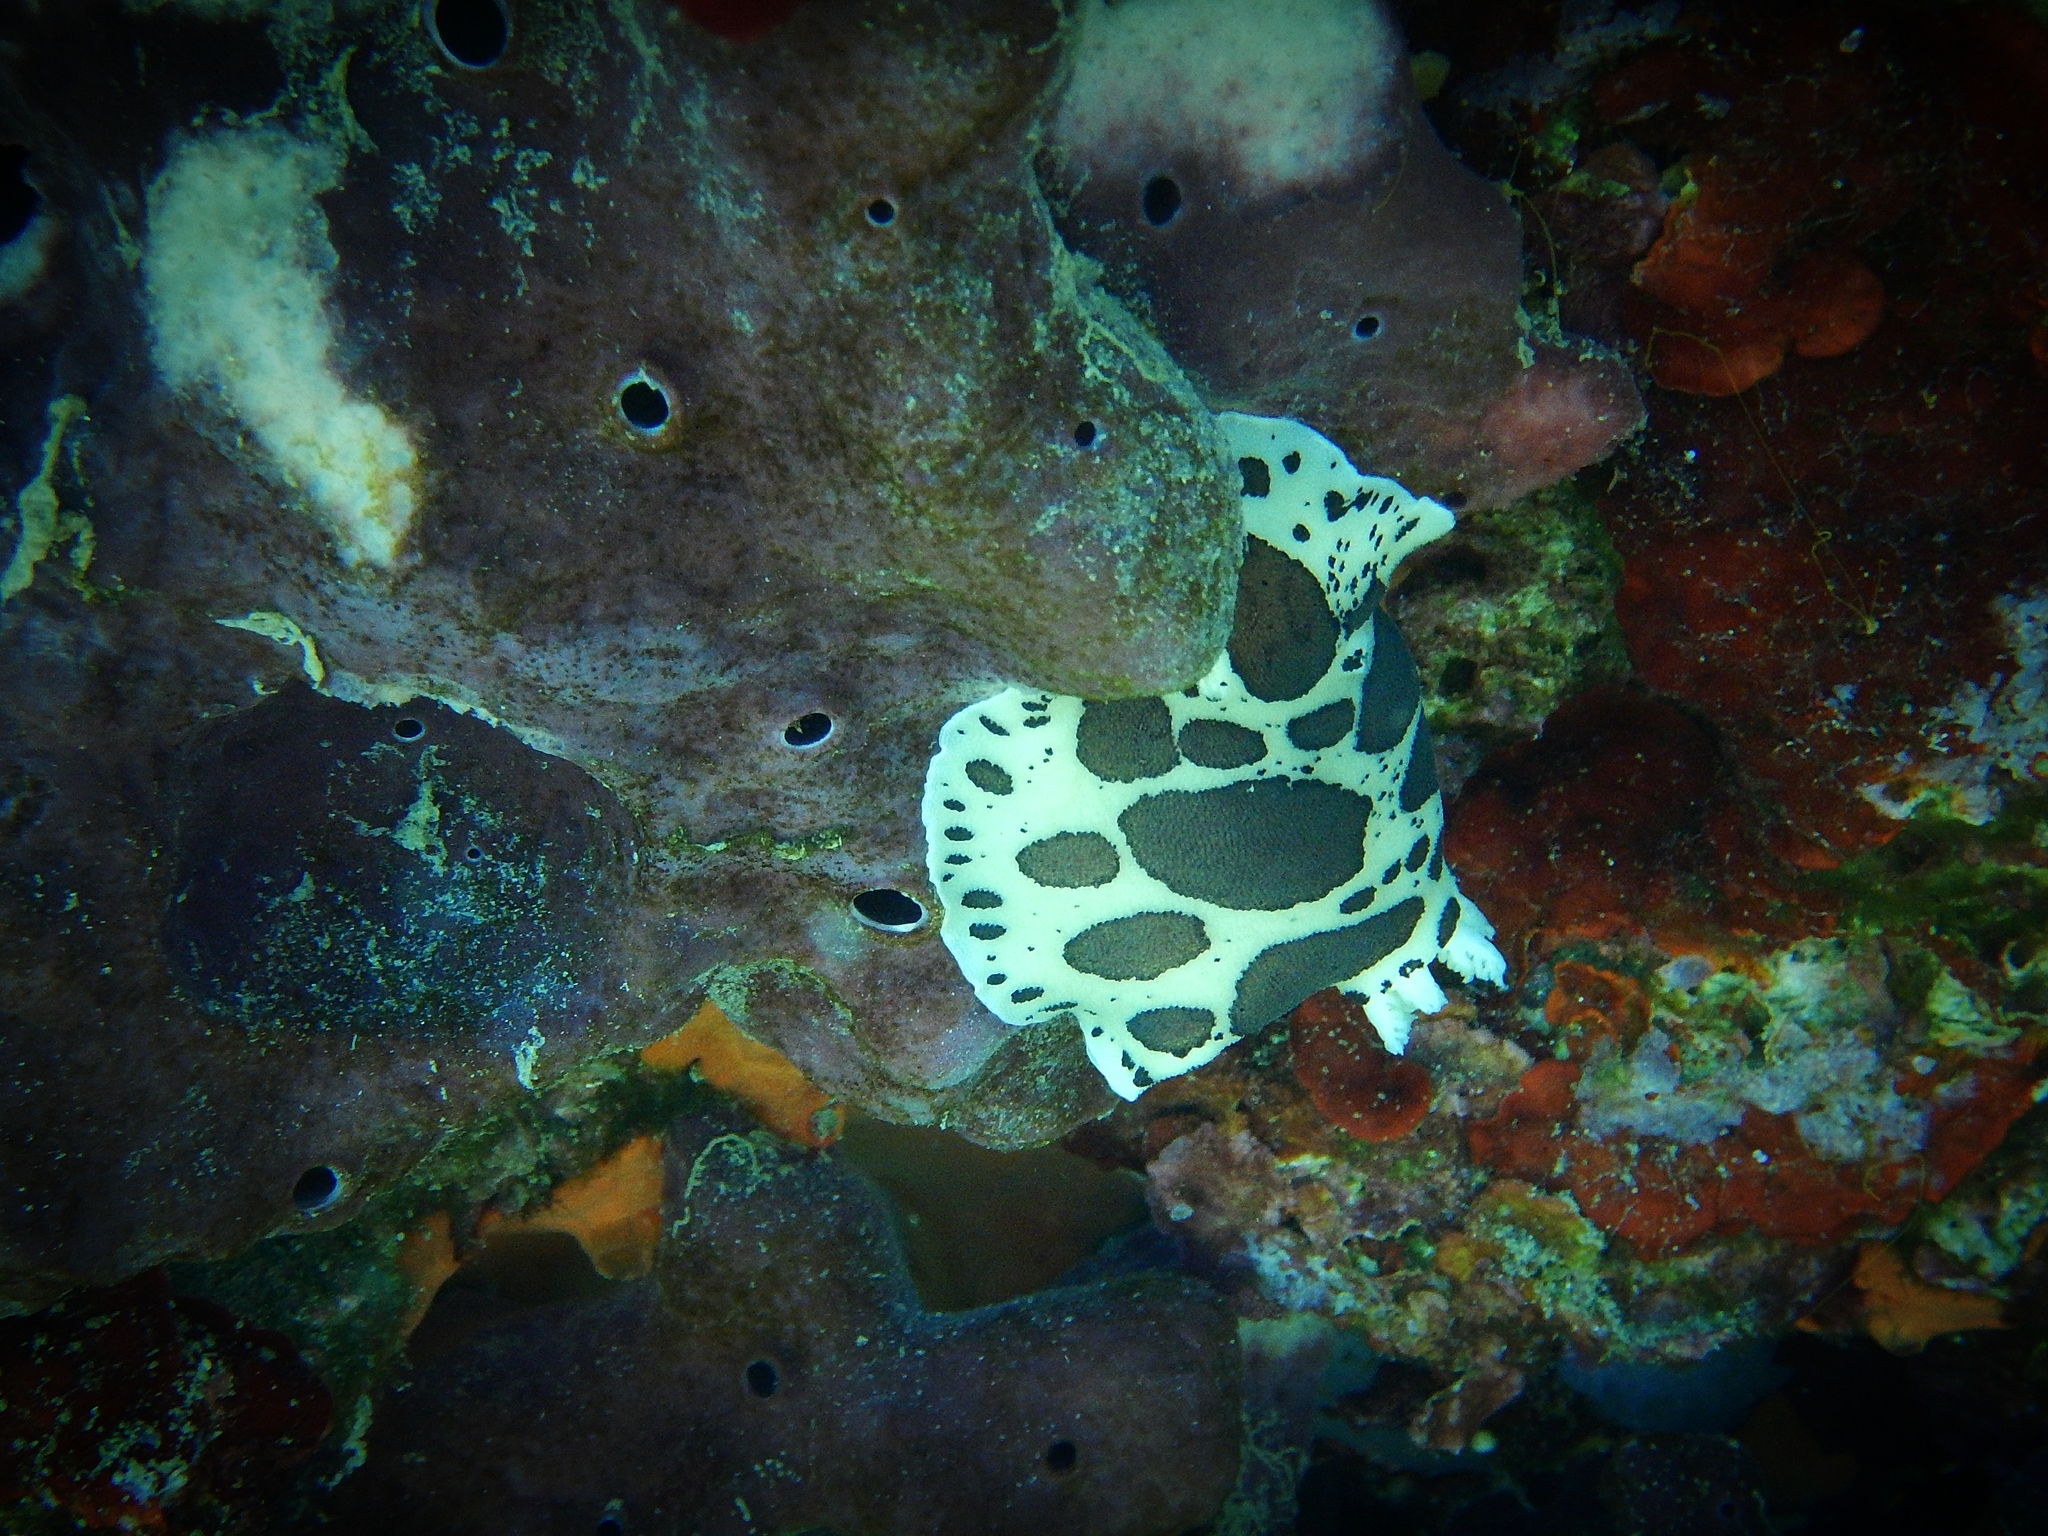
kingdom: Animalia
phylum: Mollusca
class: Gastropoda
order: Nudibranchia
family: Discodorididae
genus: Peltodoris
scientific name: Peltodoris atromaculata
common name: Swiss cow nudibranch
